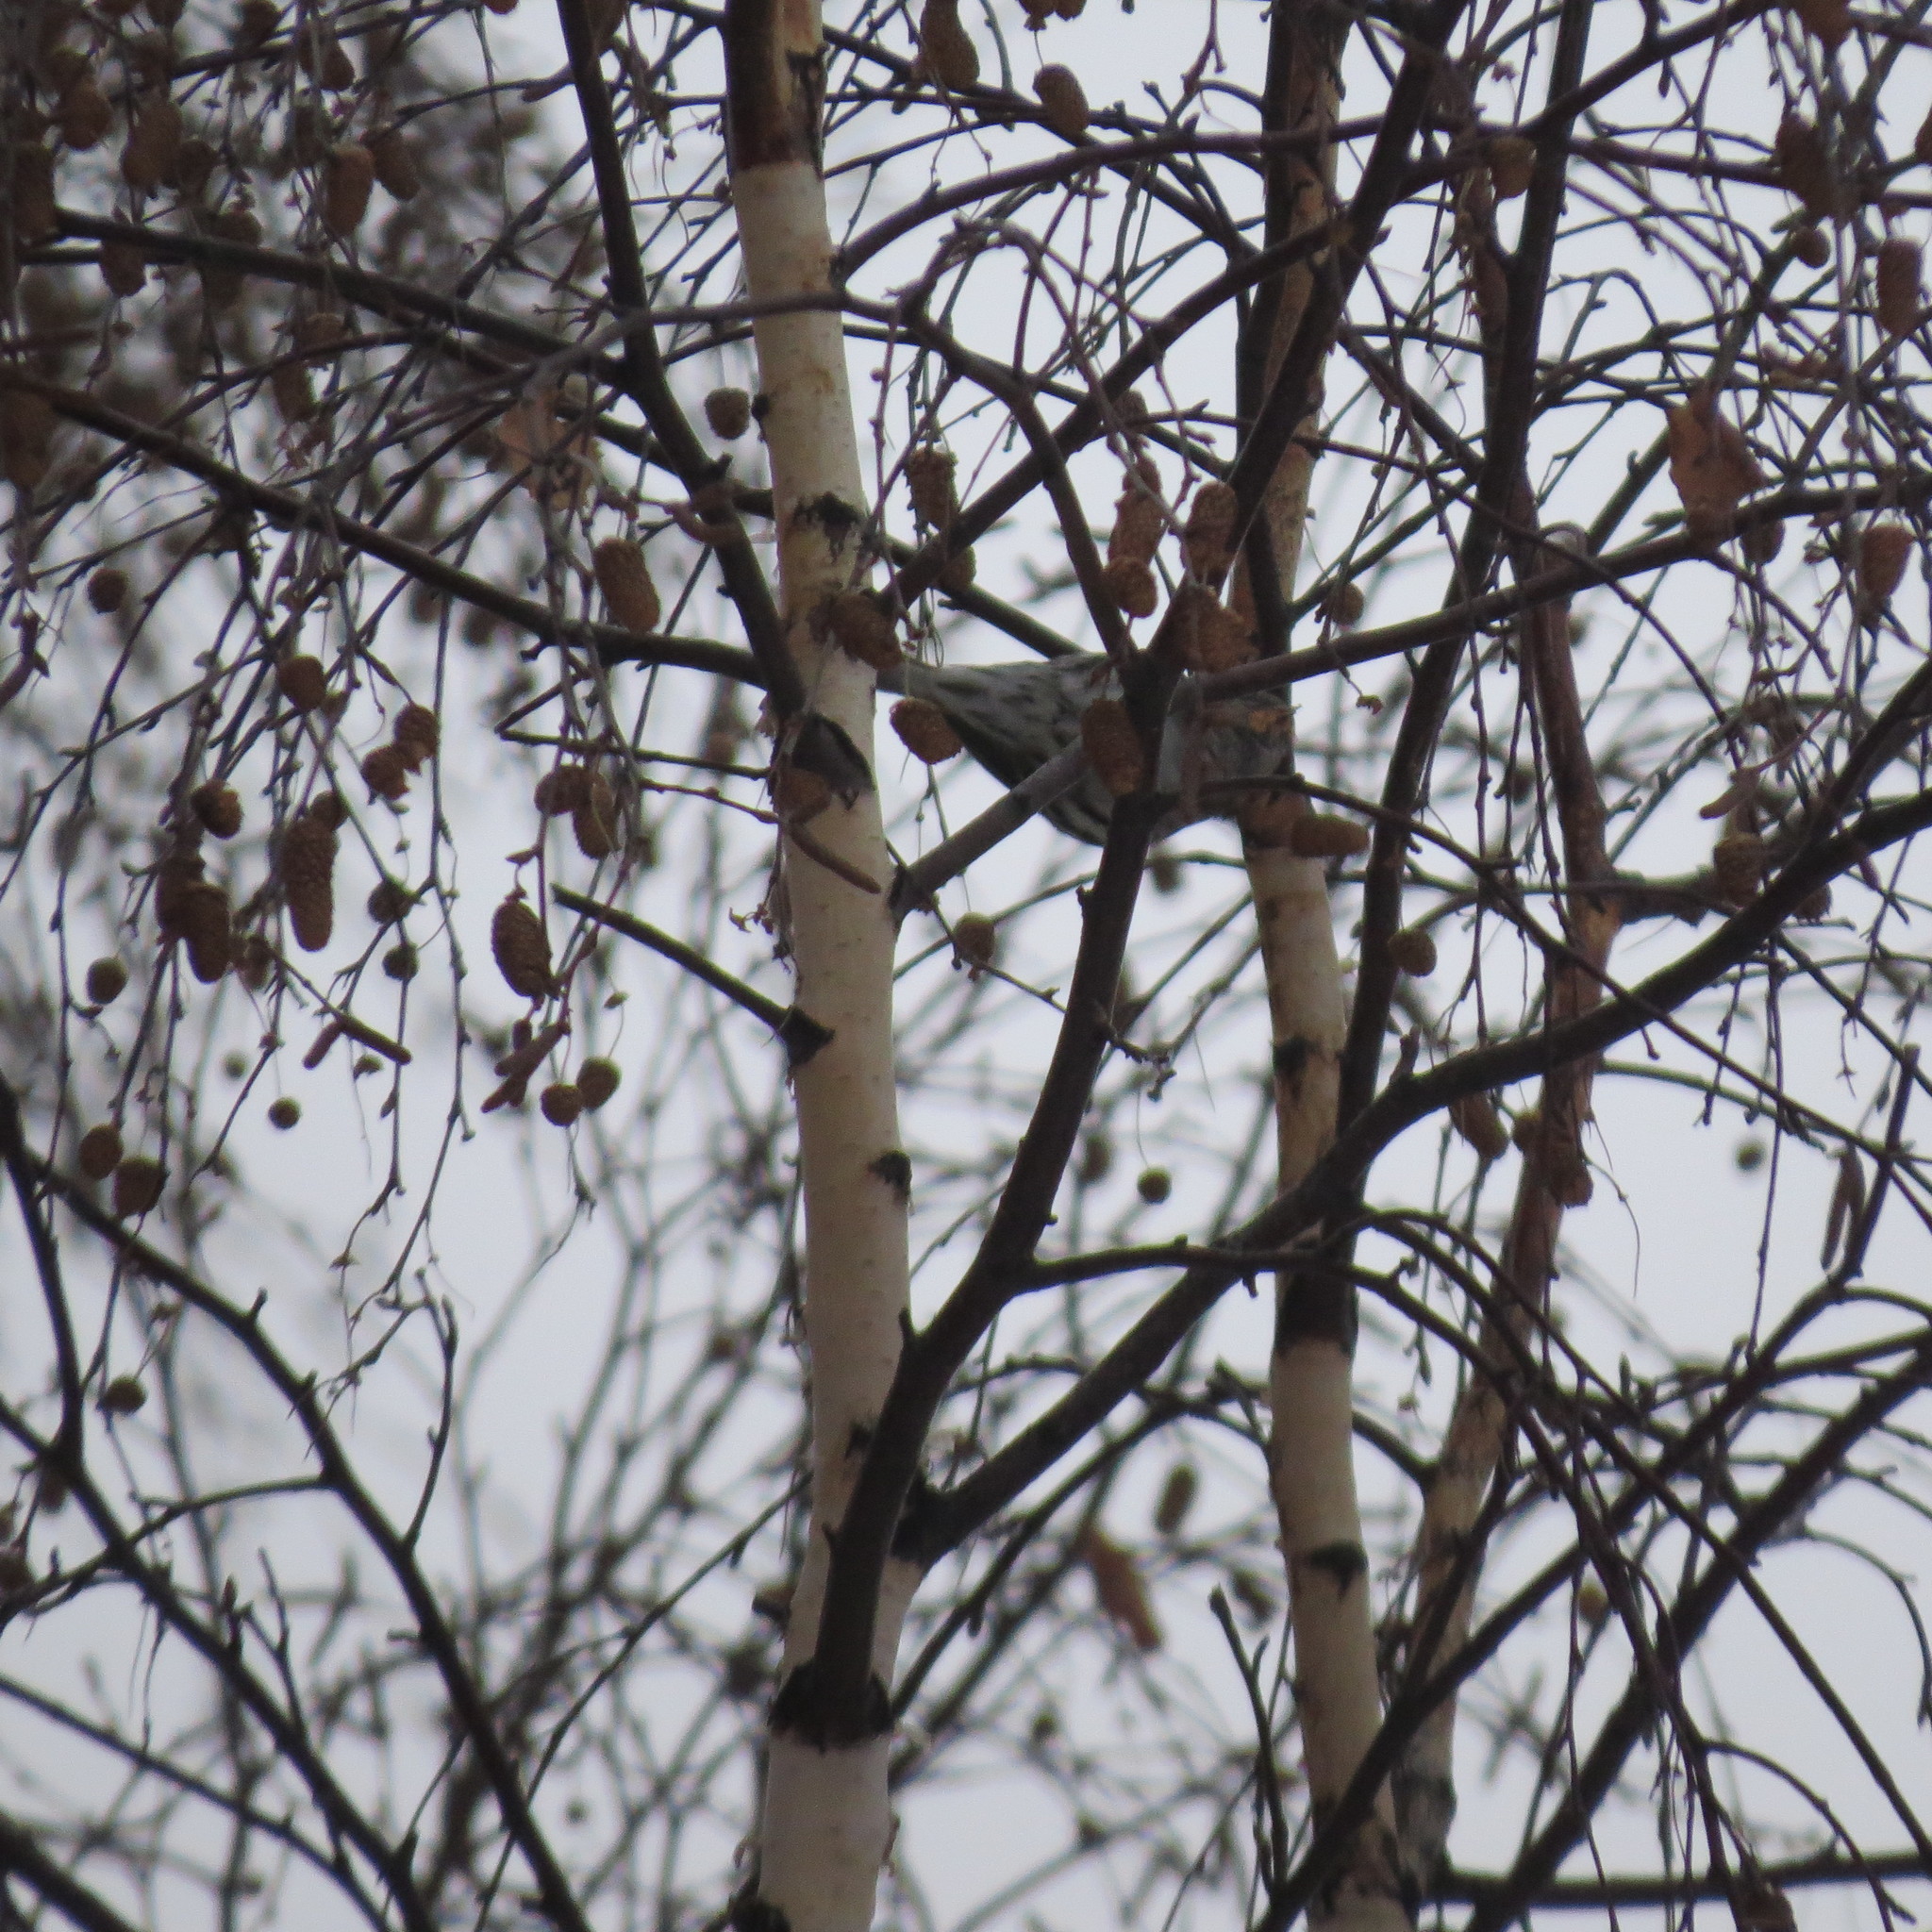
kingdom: Animalia
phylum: Chordata
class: Aves
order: Passeriformes
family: Fringillidae
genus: Spinus
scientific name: Spinus spinus
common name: Eurasian siskin
